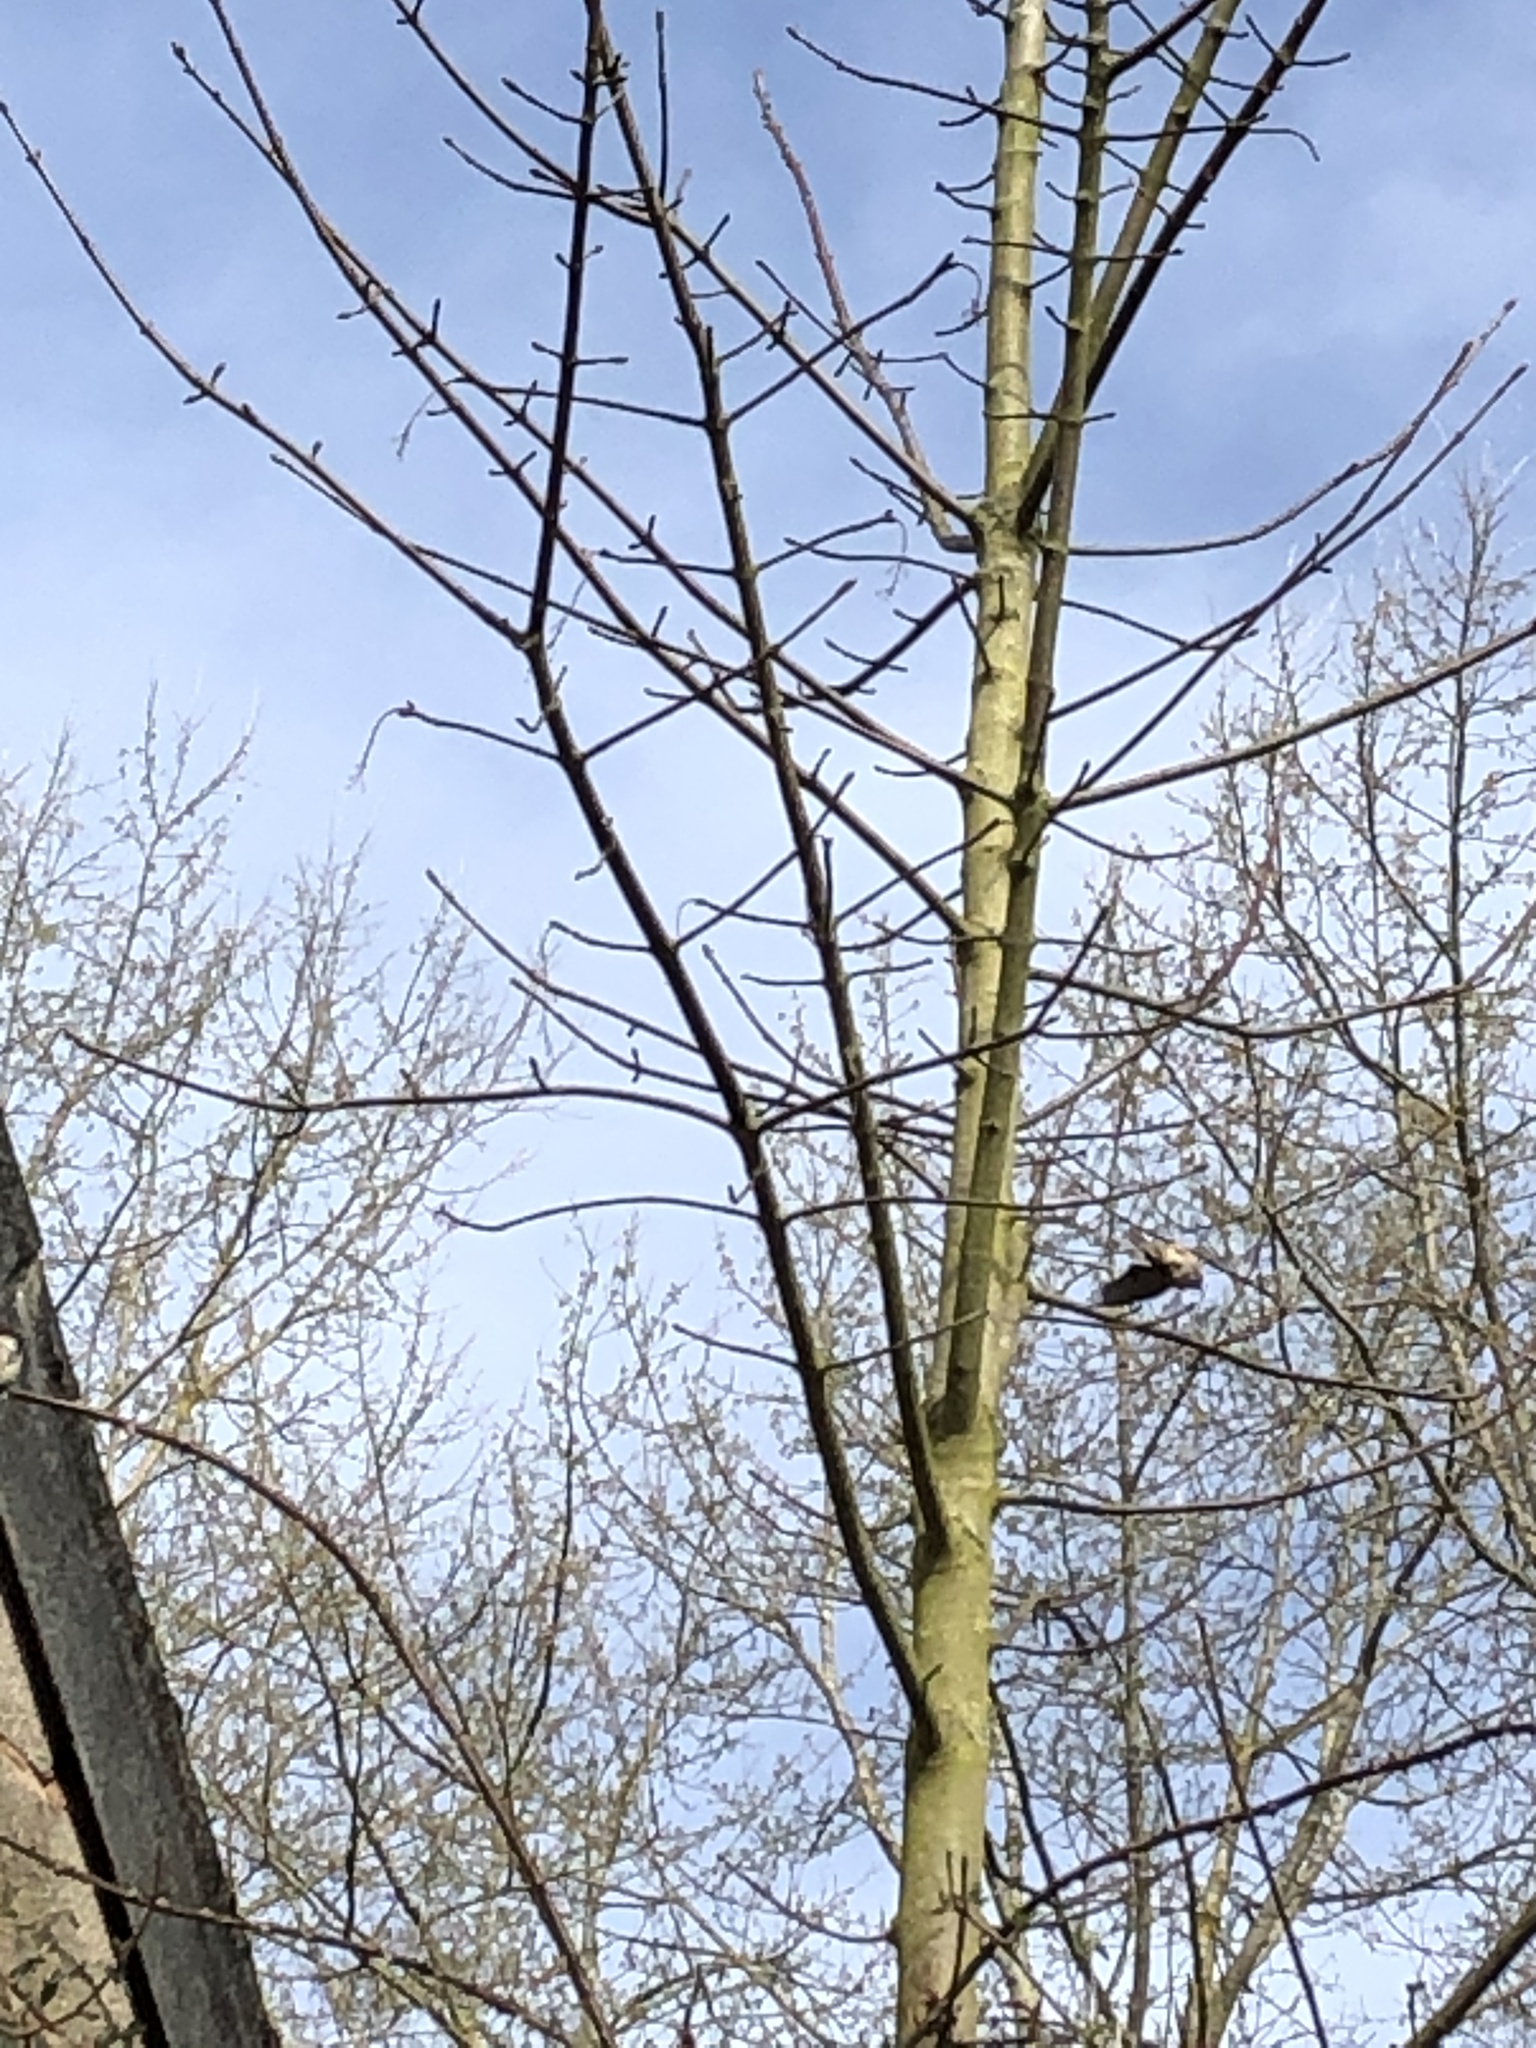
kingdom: Animalia
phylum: Chordata
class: Aves
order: Passeriformes
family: Passeridae
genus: Passer
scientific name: Passer domesticus
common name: House sparrow
